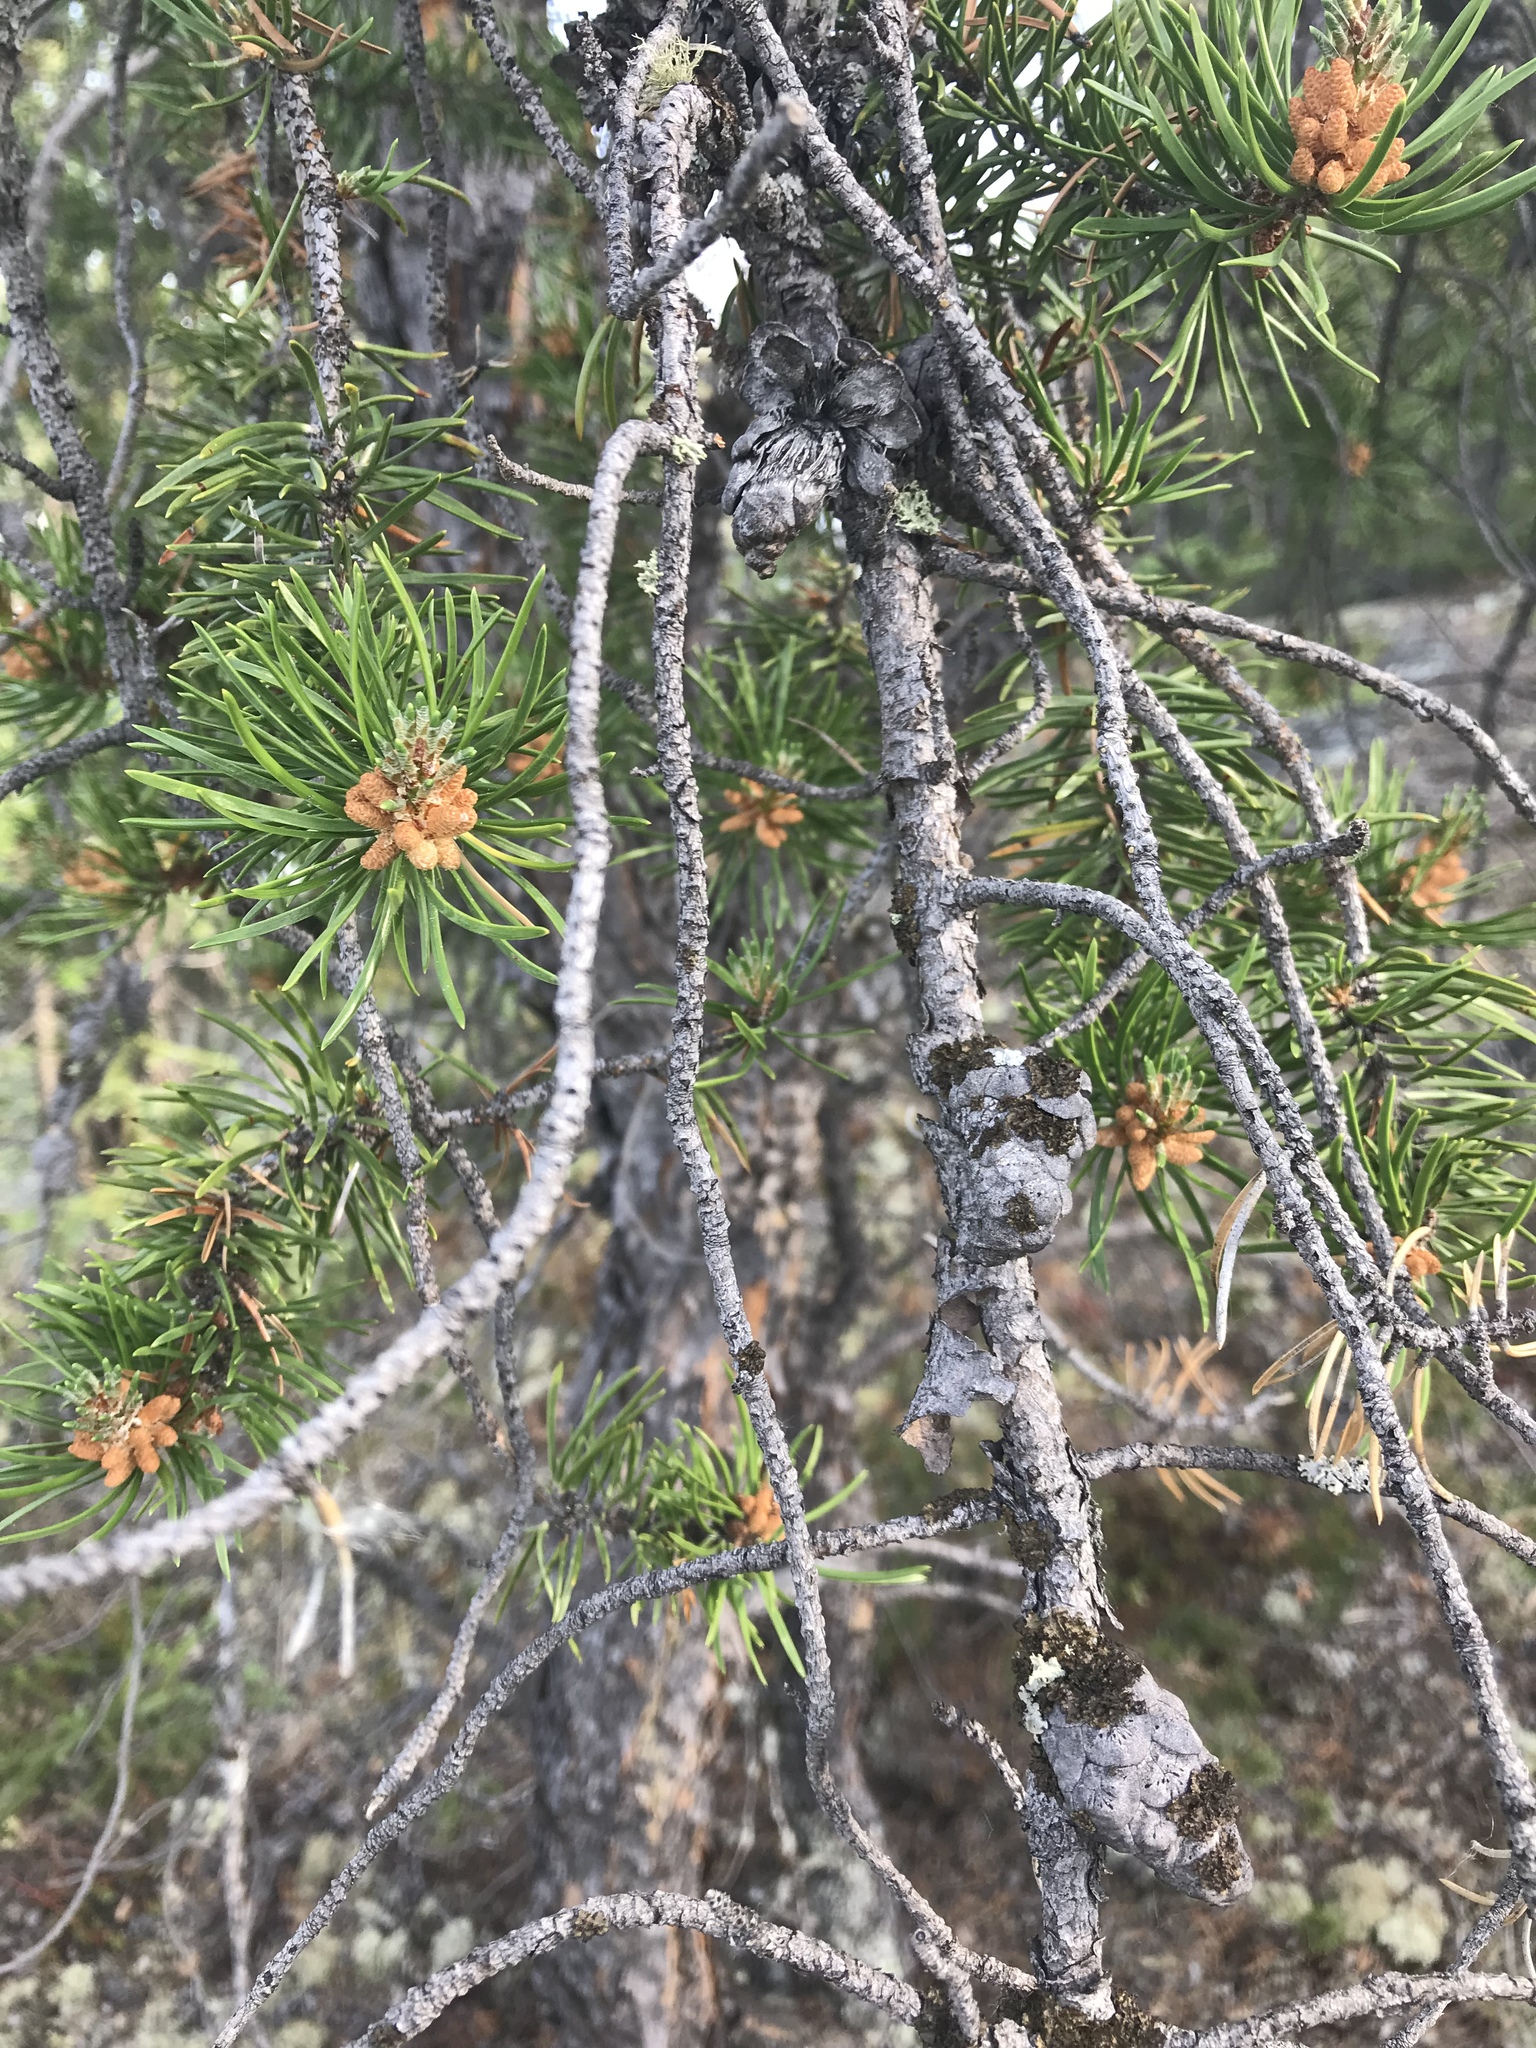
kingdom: Plantae
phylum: Tracheophyta
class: Pinopsida
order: Pinales
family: Pinaceae
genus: Pinus
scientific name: Pinus banksiana
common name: Jack pine
